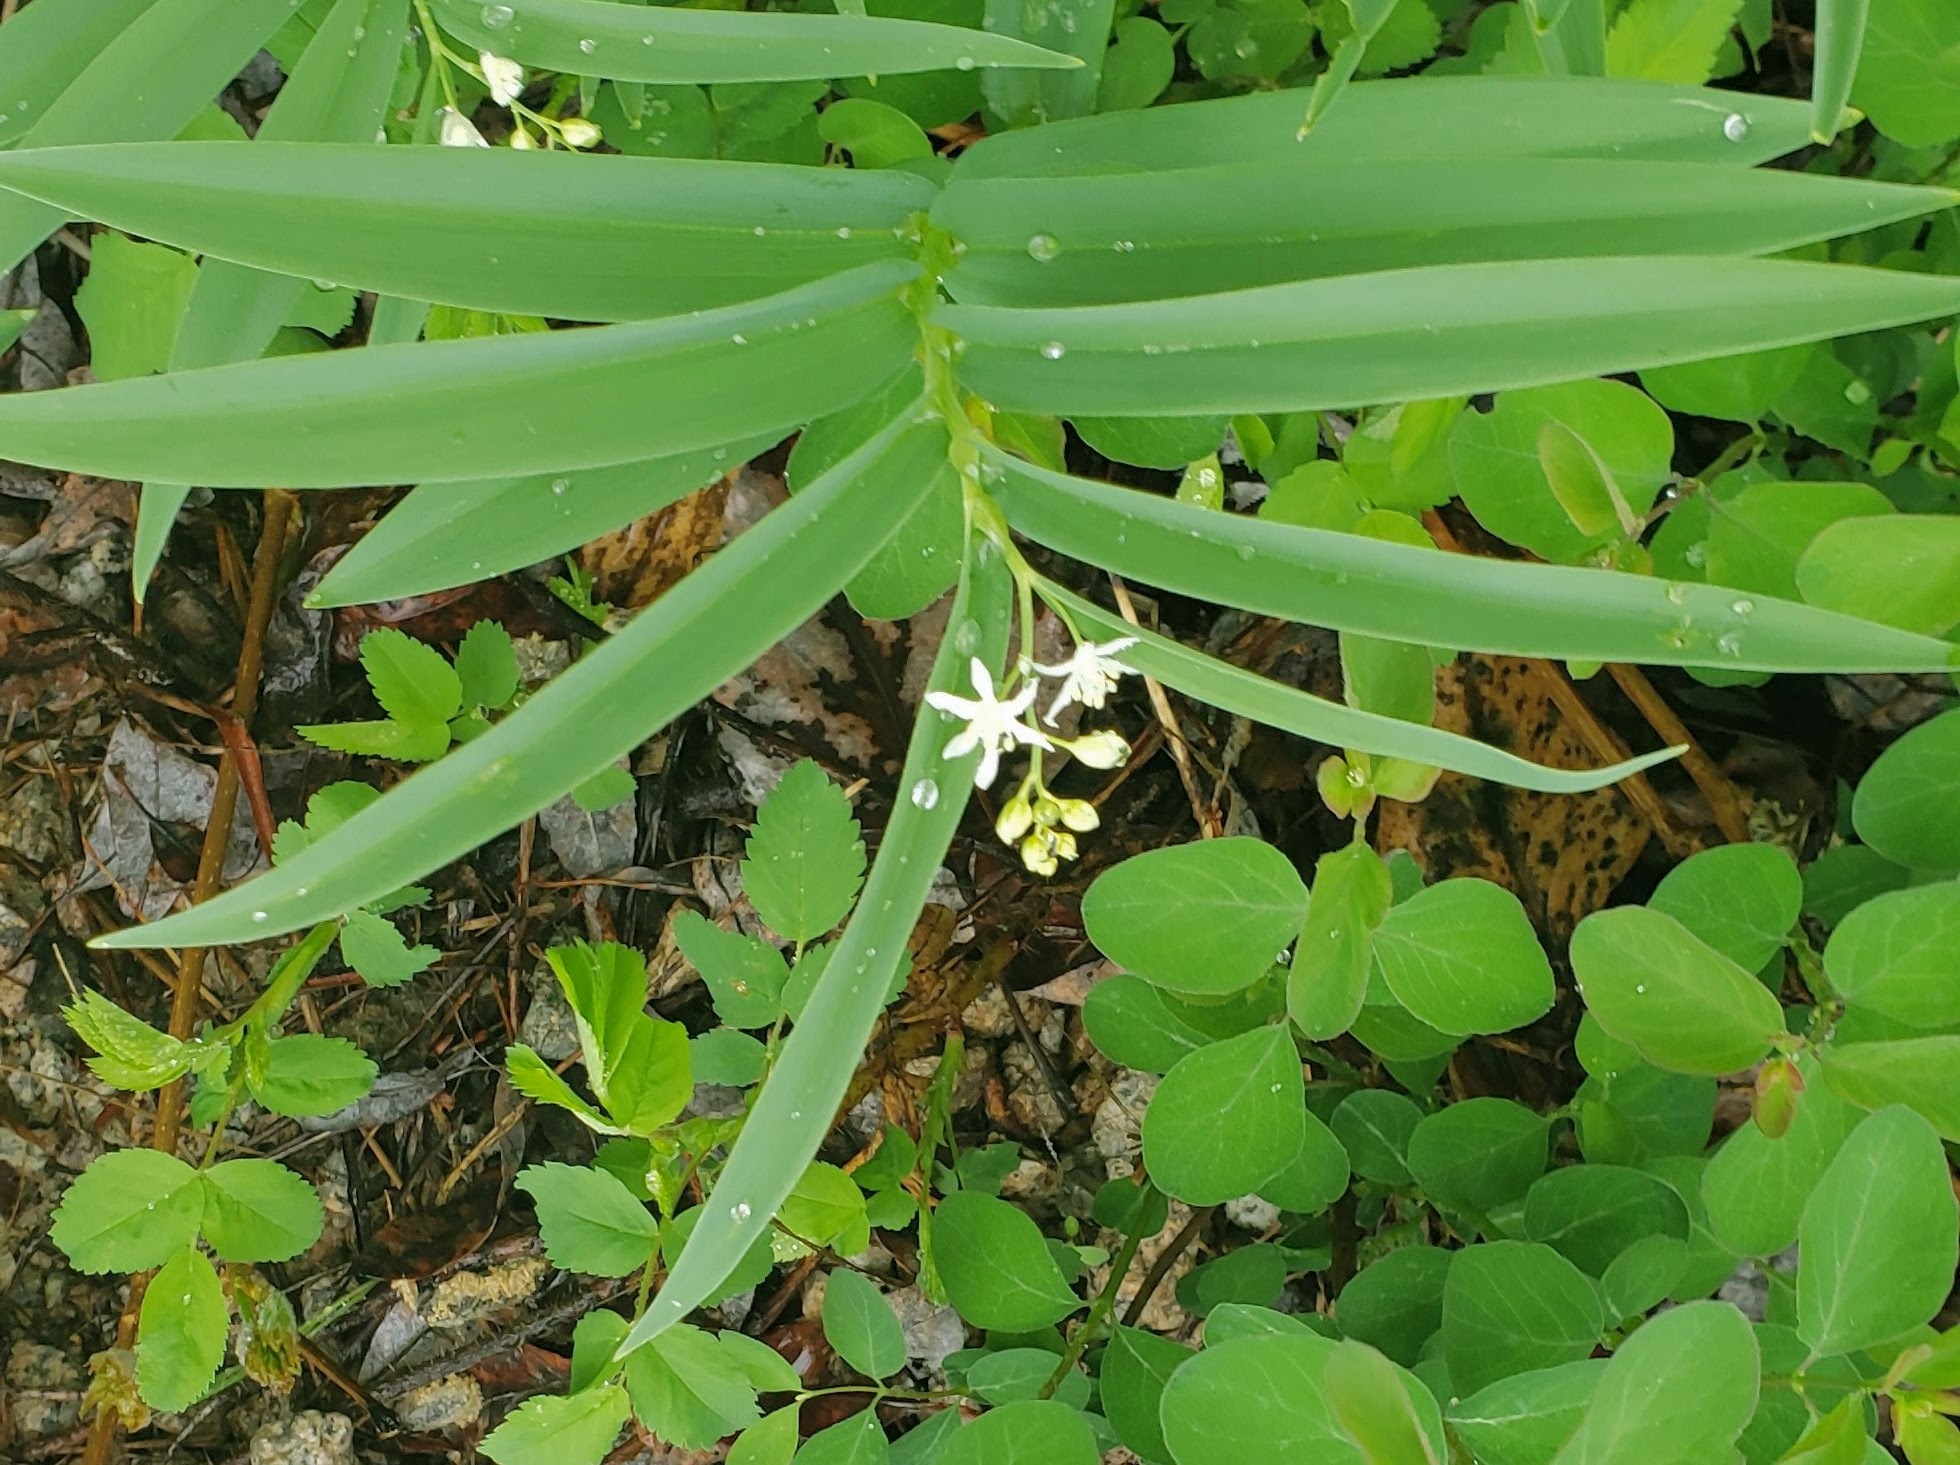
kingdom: Plantae
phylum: Tracheophyta
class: Liliopsida
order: Asparagales
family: Asparagaceae
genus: Maianthemum
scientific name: Maianthemum stellatum
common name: Little false solomon's seal
